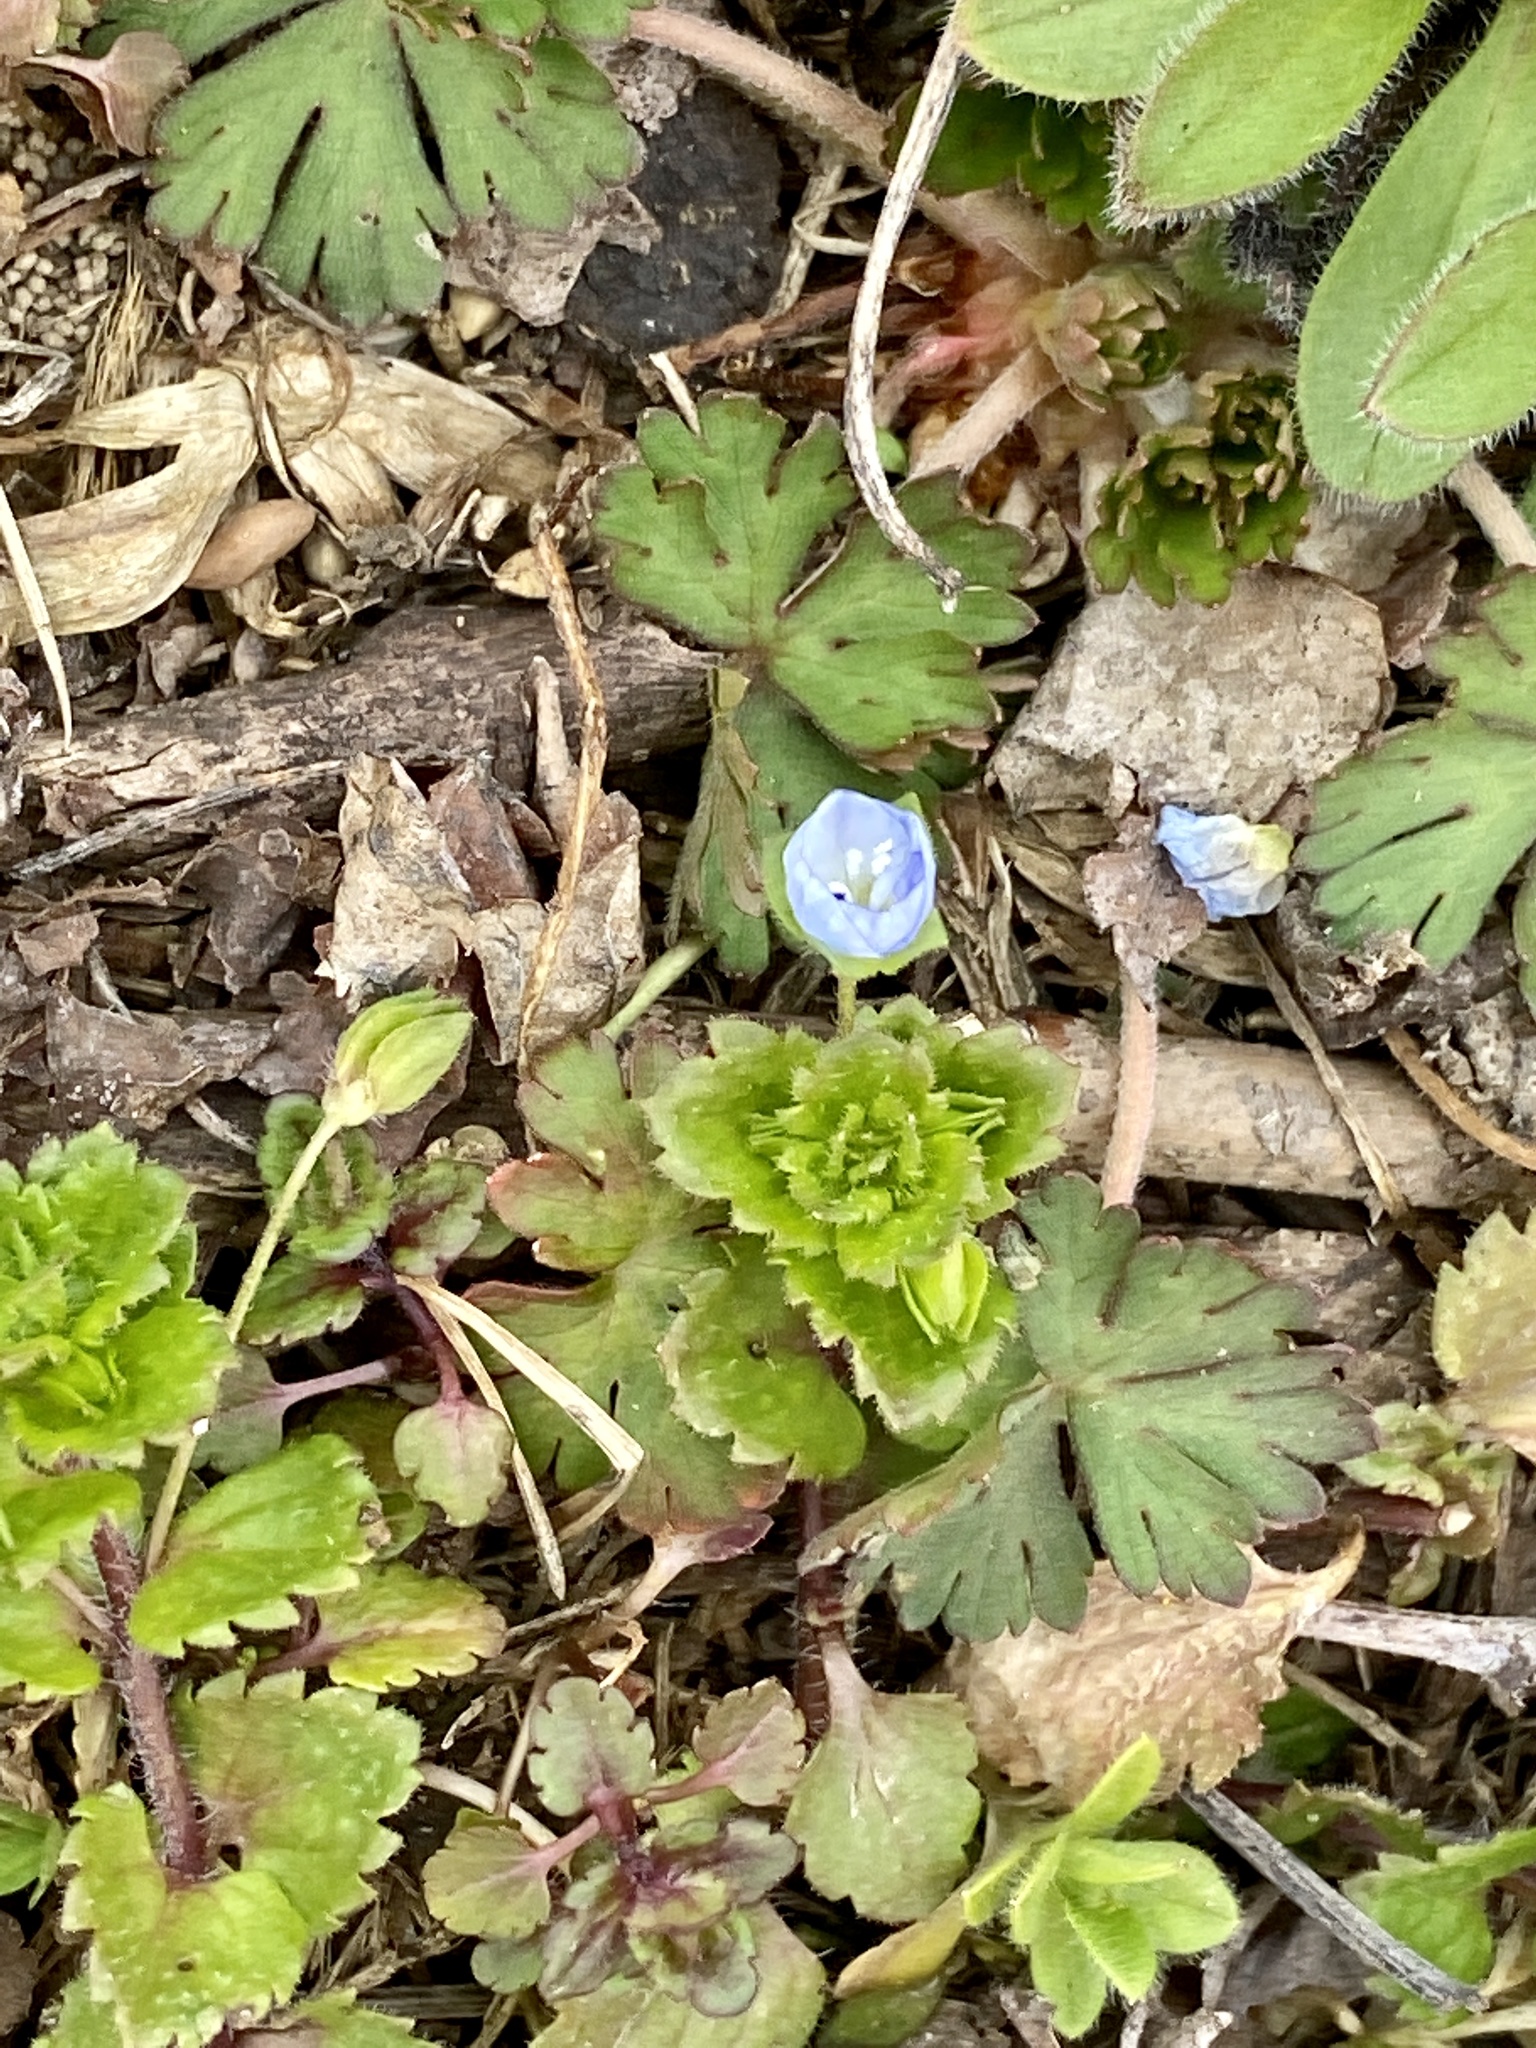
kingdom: Plantae
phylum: Tracheophyta
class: Magnoliopsida
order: Lamiales
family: Plantaginaceae
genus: Veronica
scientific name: Veronica persica
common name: Common field-speedwell
